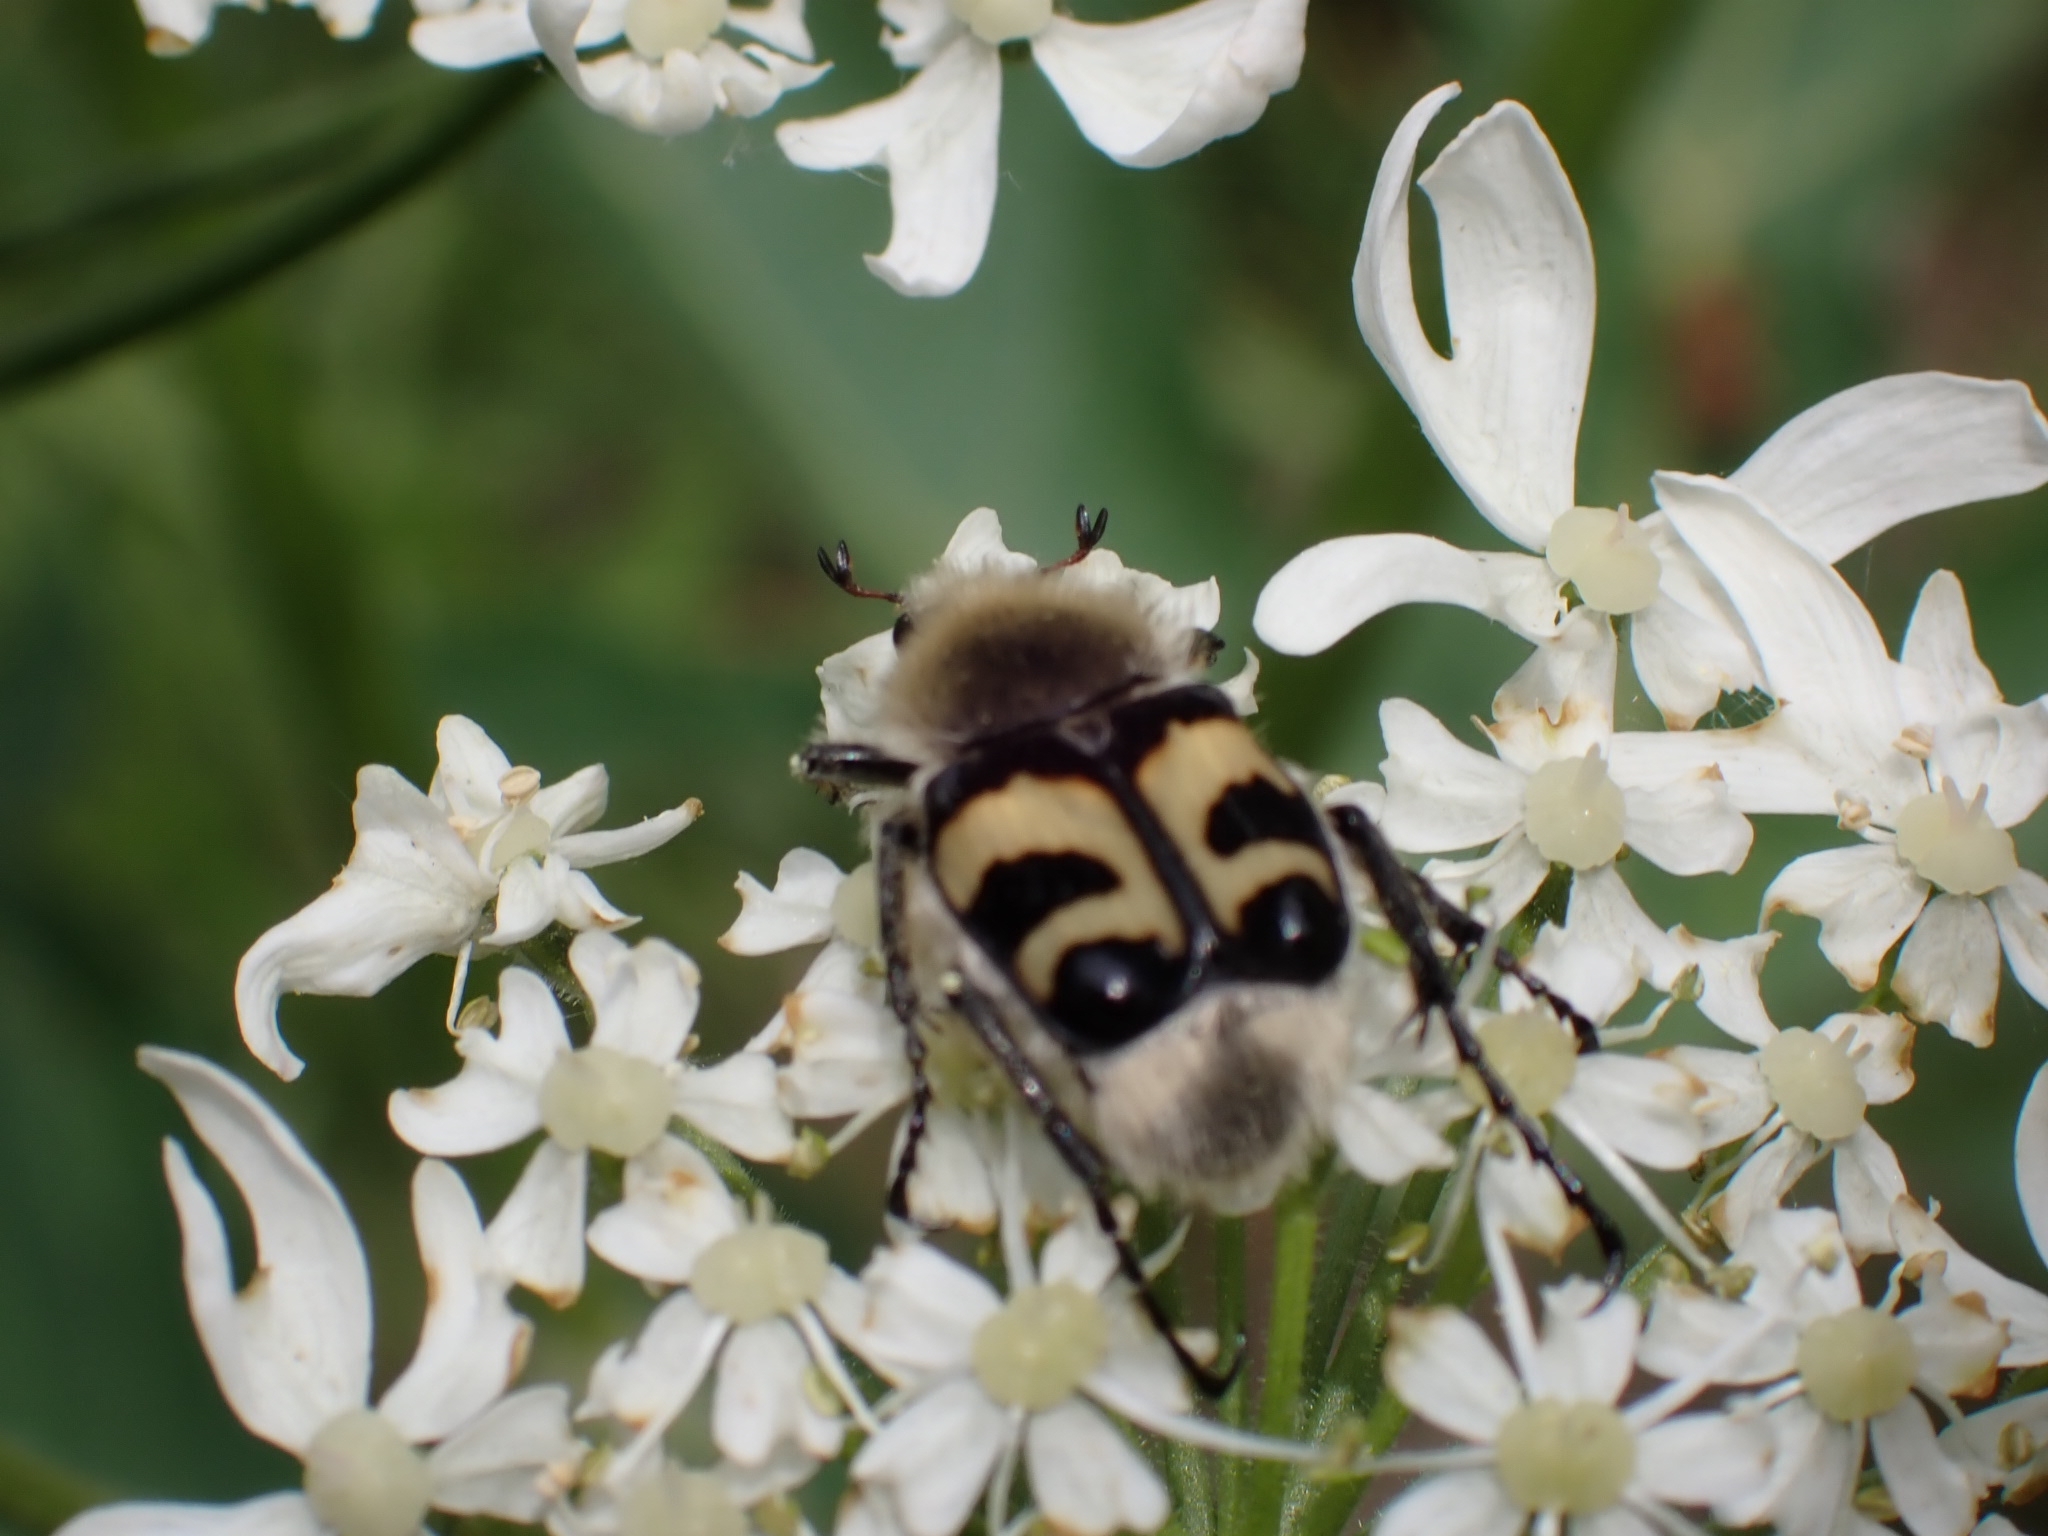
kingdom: Animalia
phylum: Arthropoda
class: Insecta
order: Coleoptera
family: Scarabaeidae
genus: Trichius
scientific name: Trichius fasciatus
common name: Bee beetle
